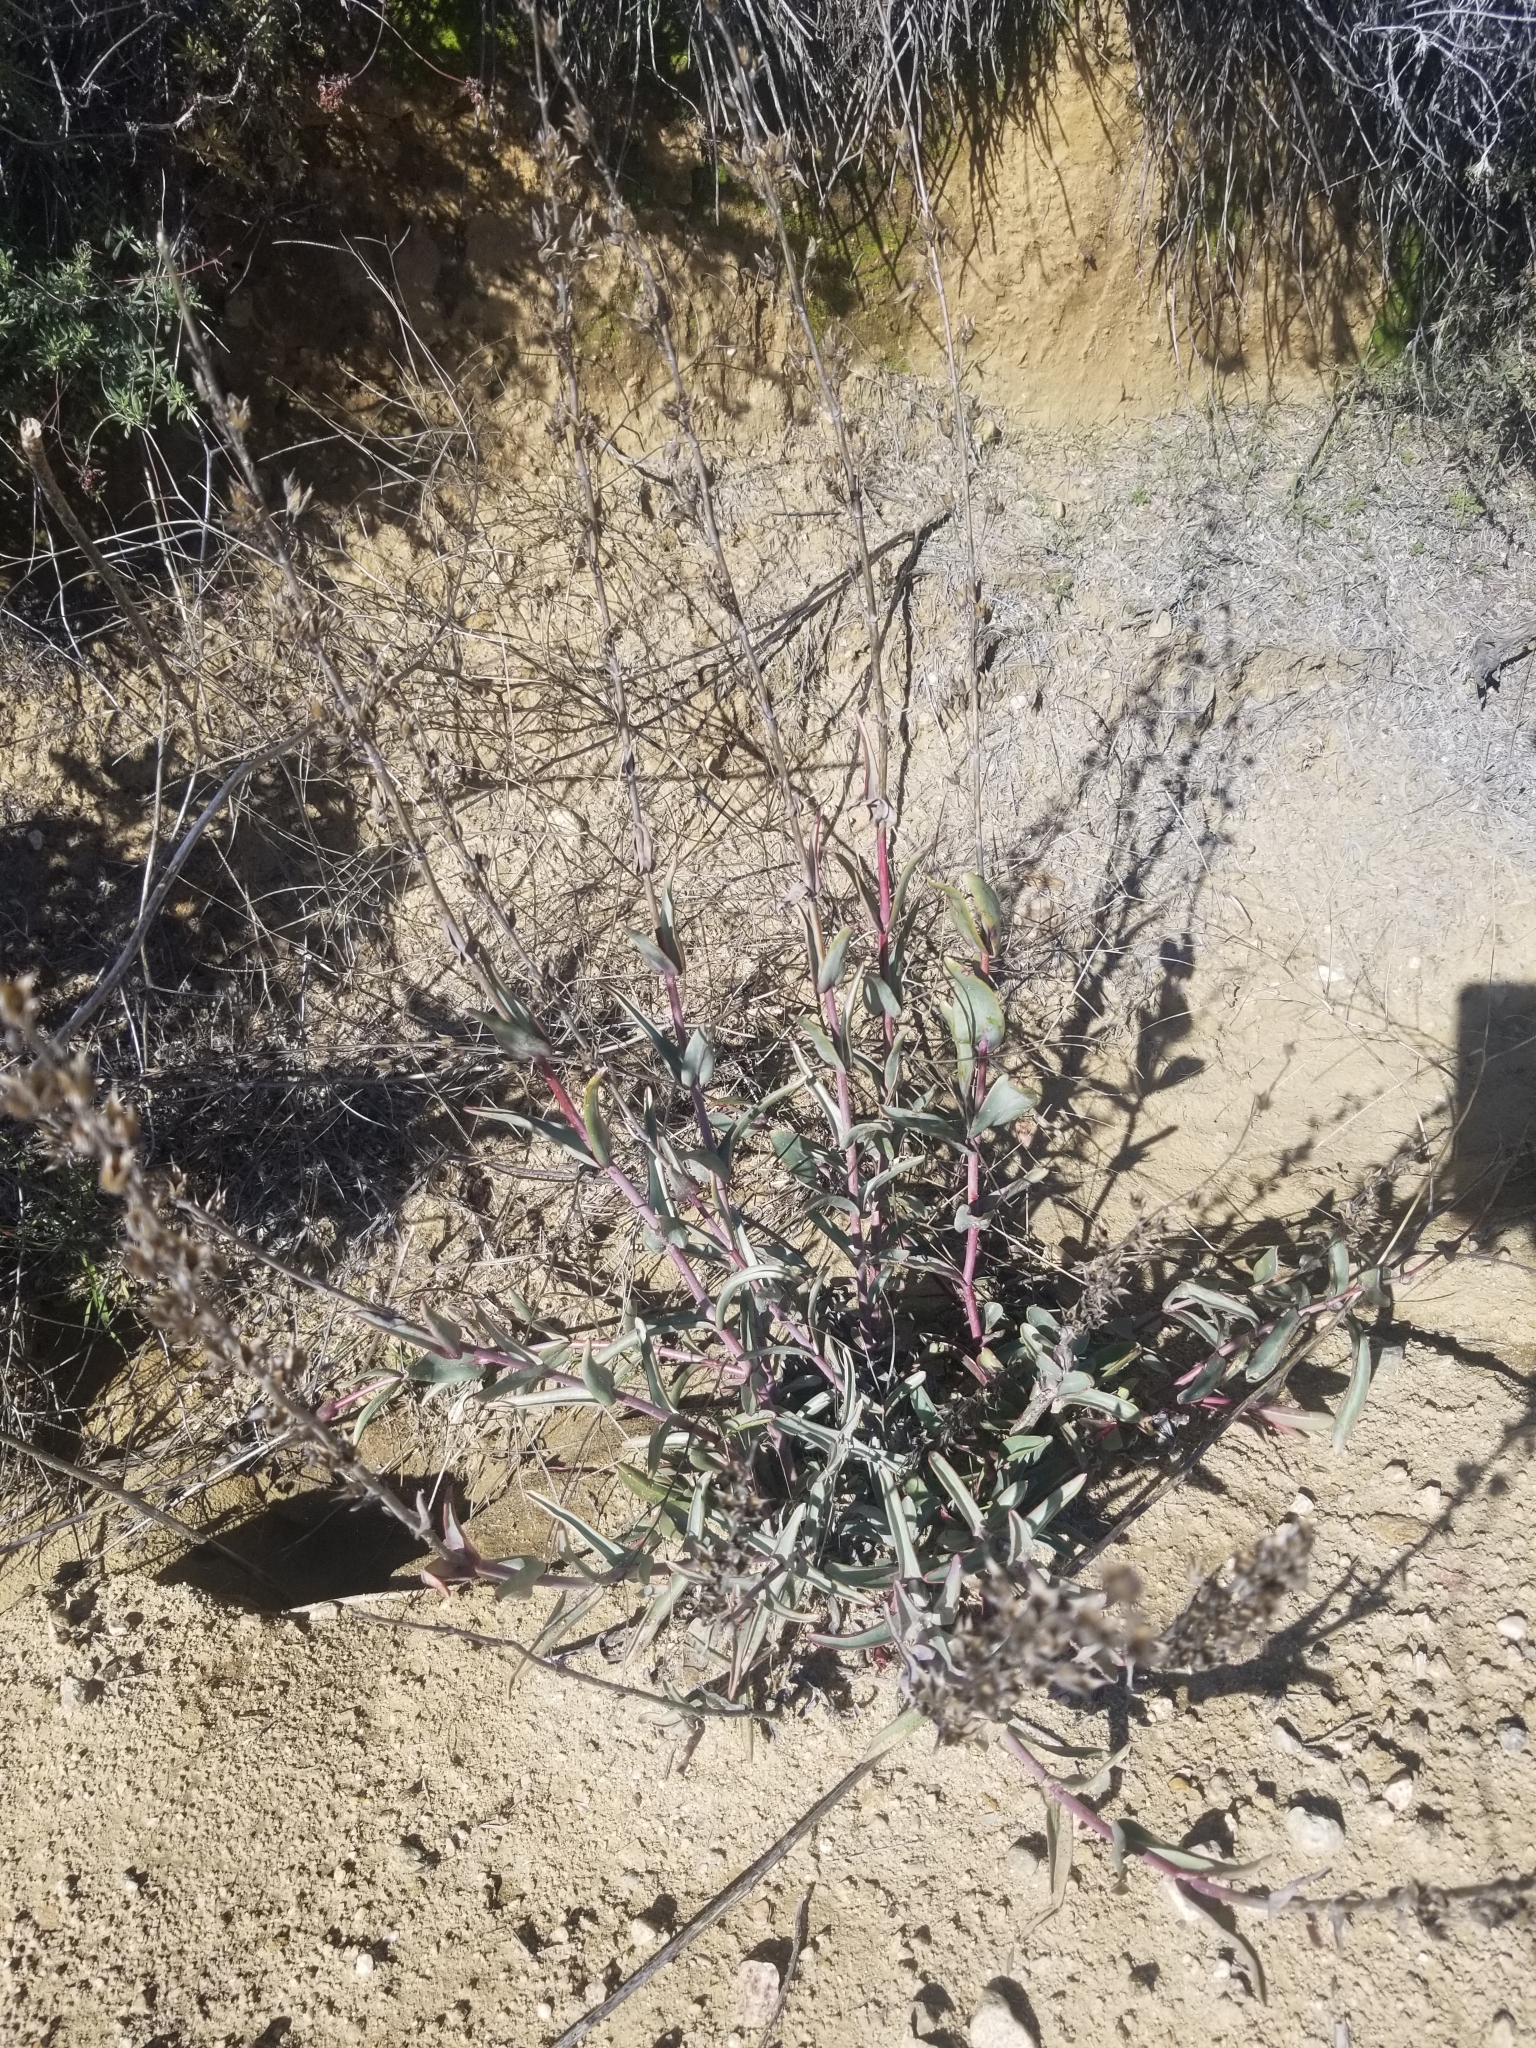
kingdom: Plantae
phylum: Tracheophyta
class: Magnoliopsida
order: Lamiales
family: Plantaginaceae
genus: Penstemon
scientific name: Penstemon centranthifolius
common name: Scarlet bugler
